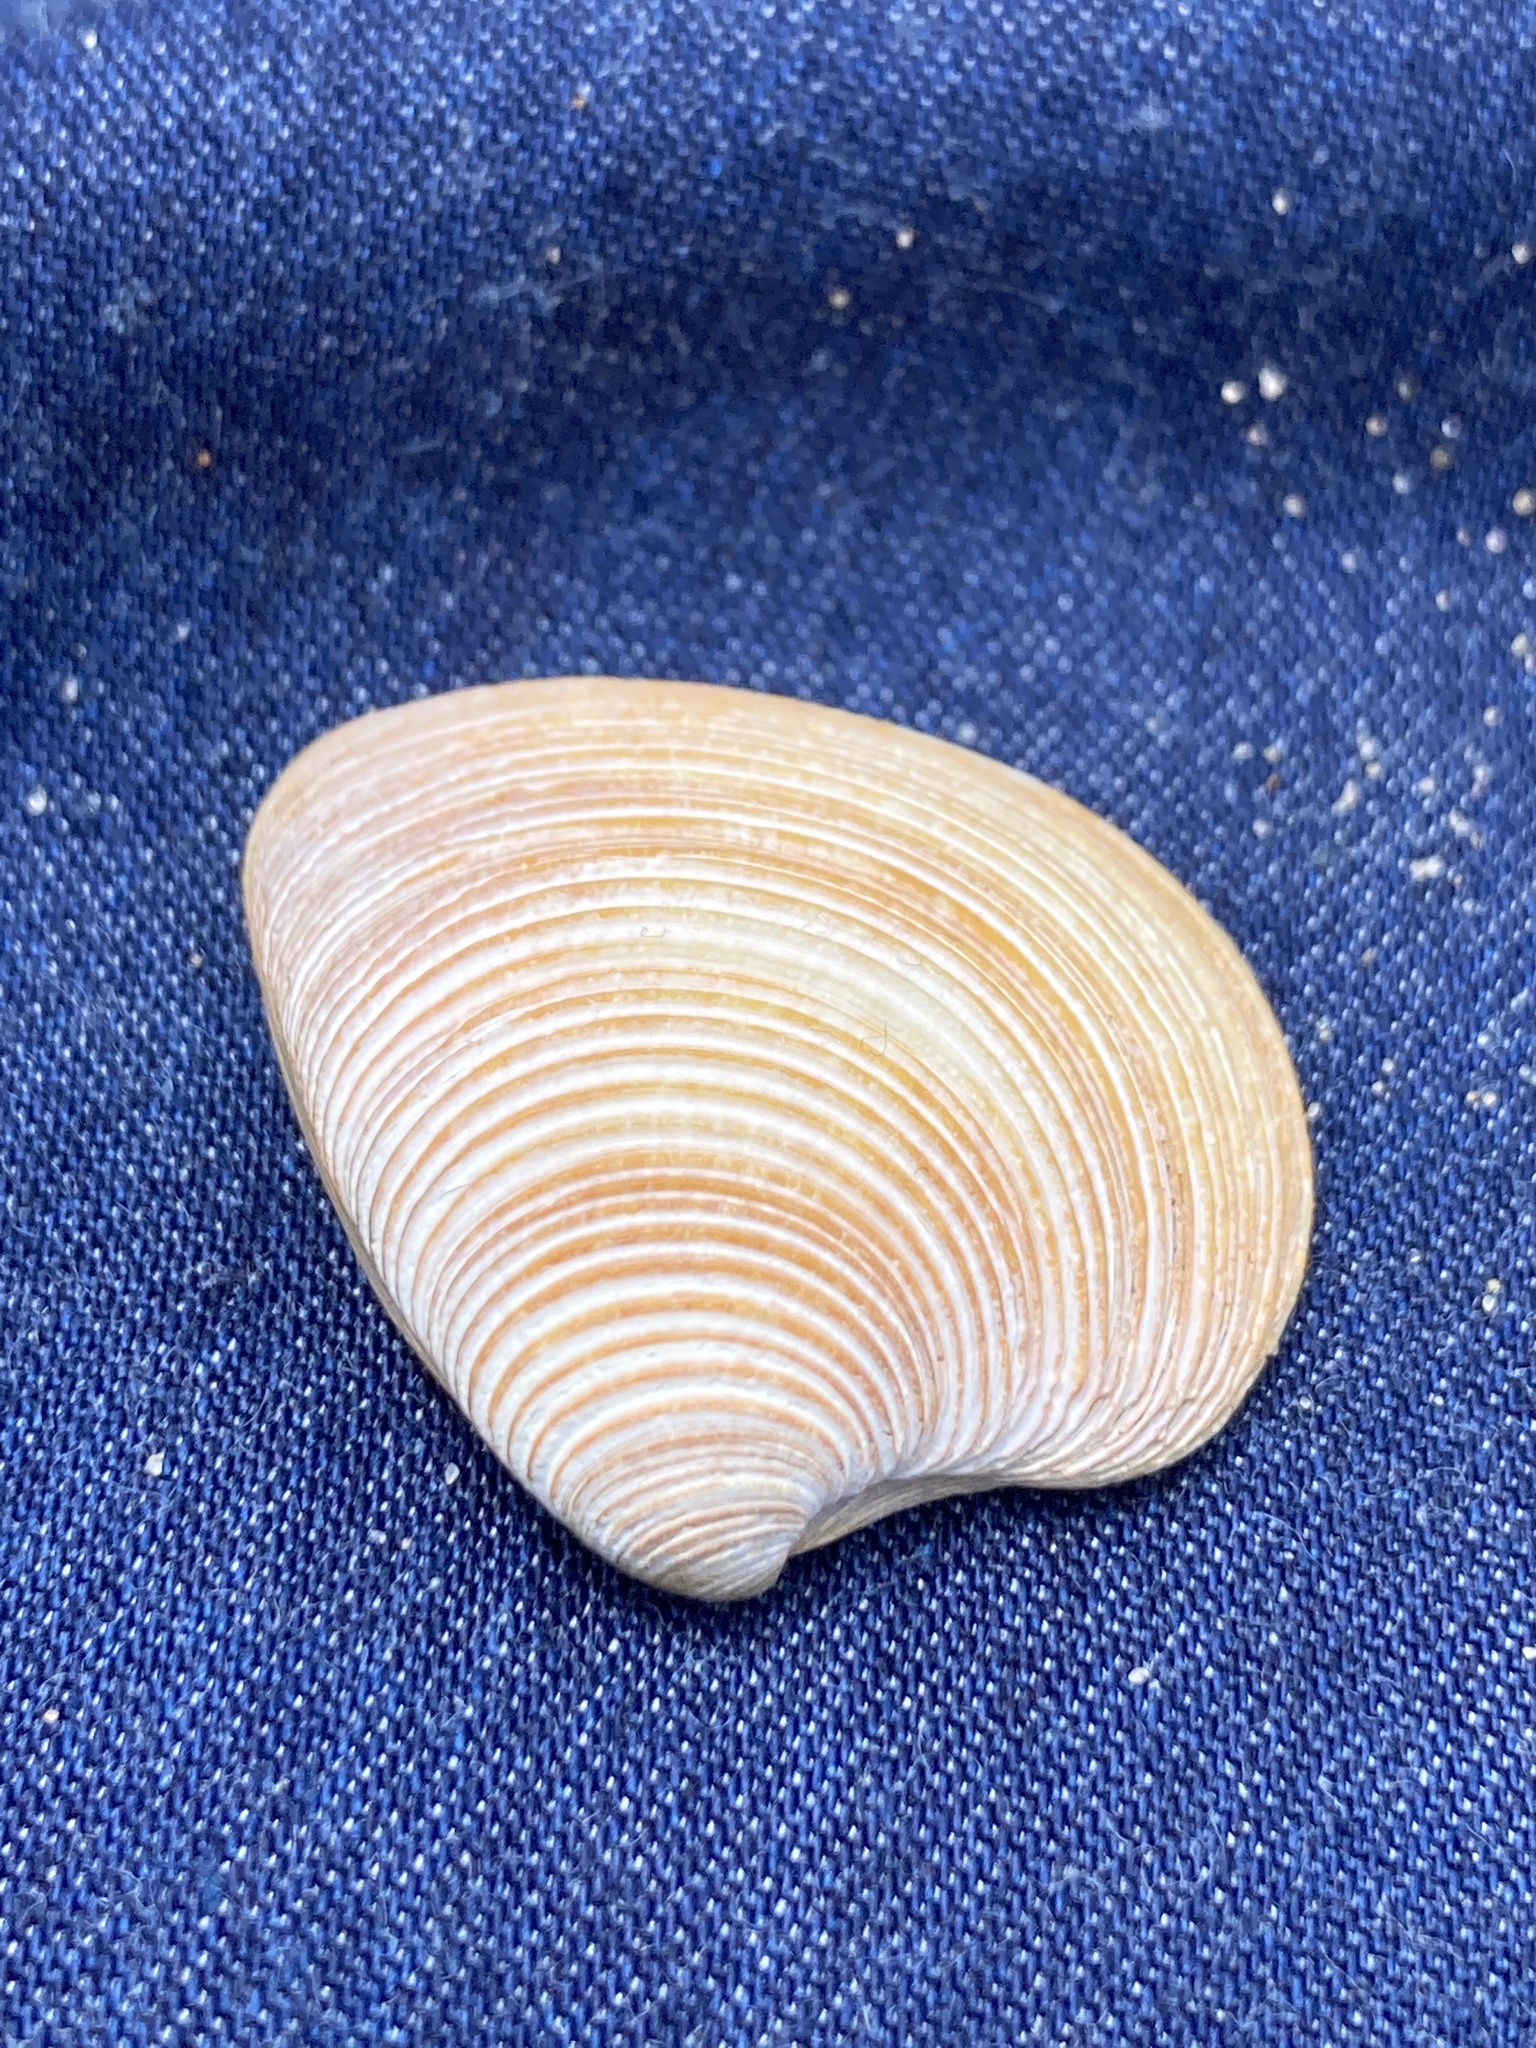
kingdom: Animalia
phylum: Mollusca
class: Bivalvia
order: Venerida
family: Veneridae
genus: Chamelea
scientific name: Chamelea striatula
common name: Striped venus
